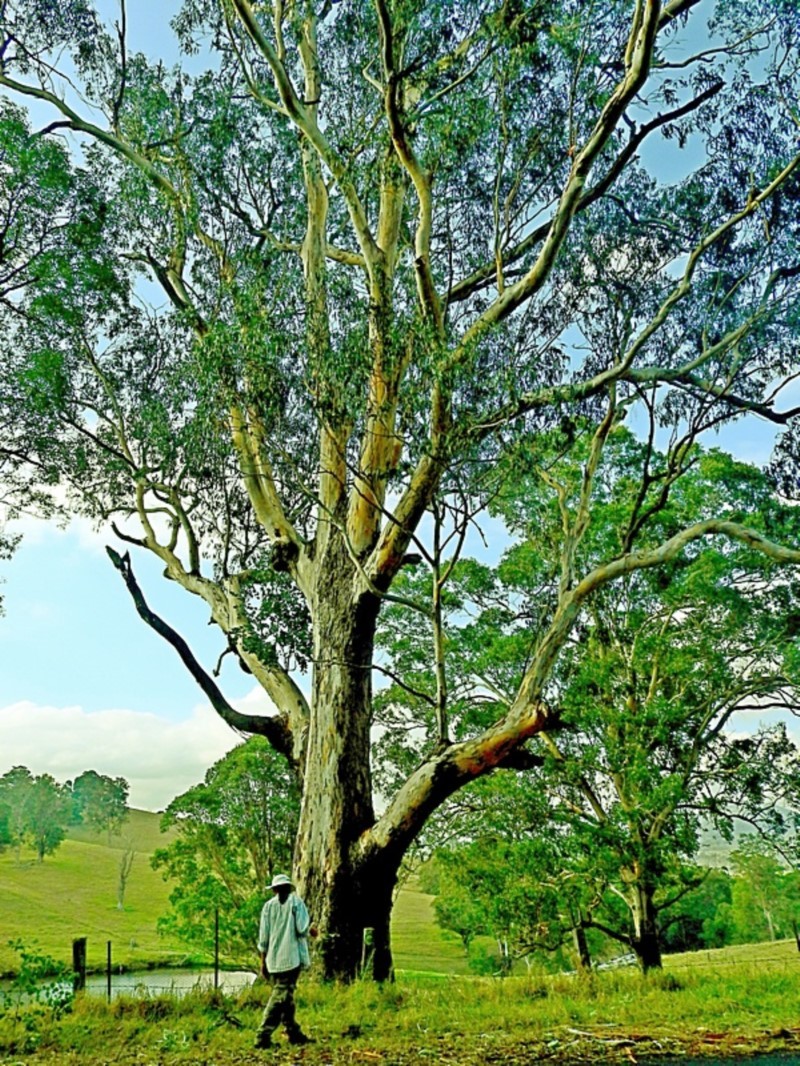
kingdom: Plantae
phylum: Tracheophyta
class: Magnoliopsida
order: Myrtales
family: Myrtaceae
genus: Eucalyptus
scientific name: Eucalyptus globulus
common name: Southern blue-gum
